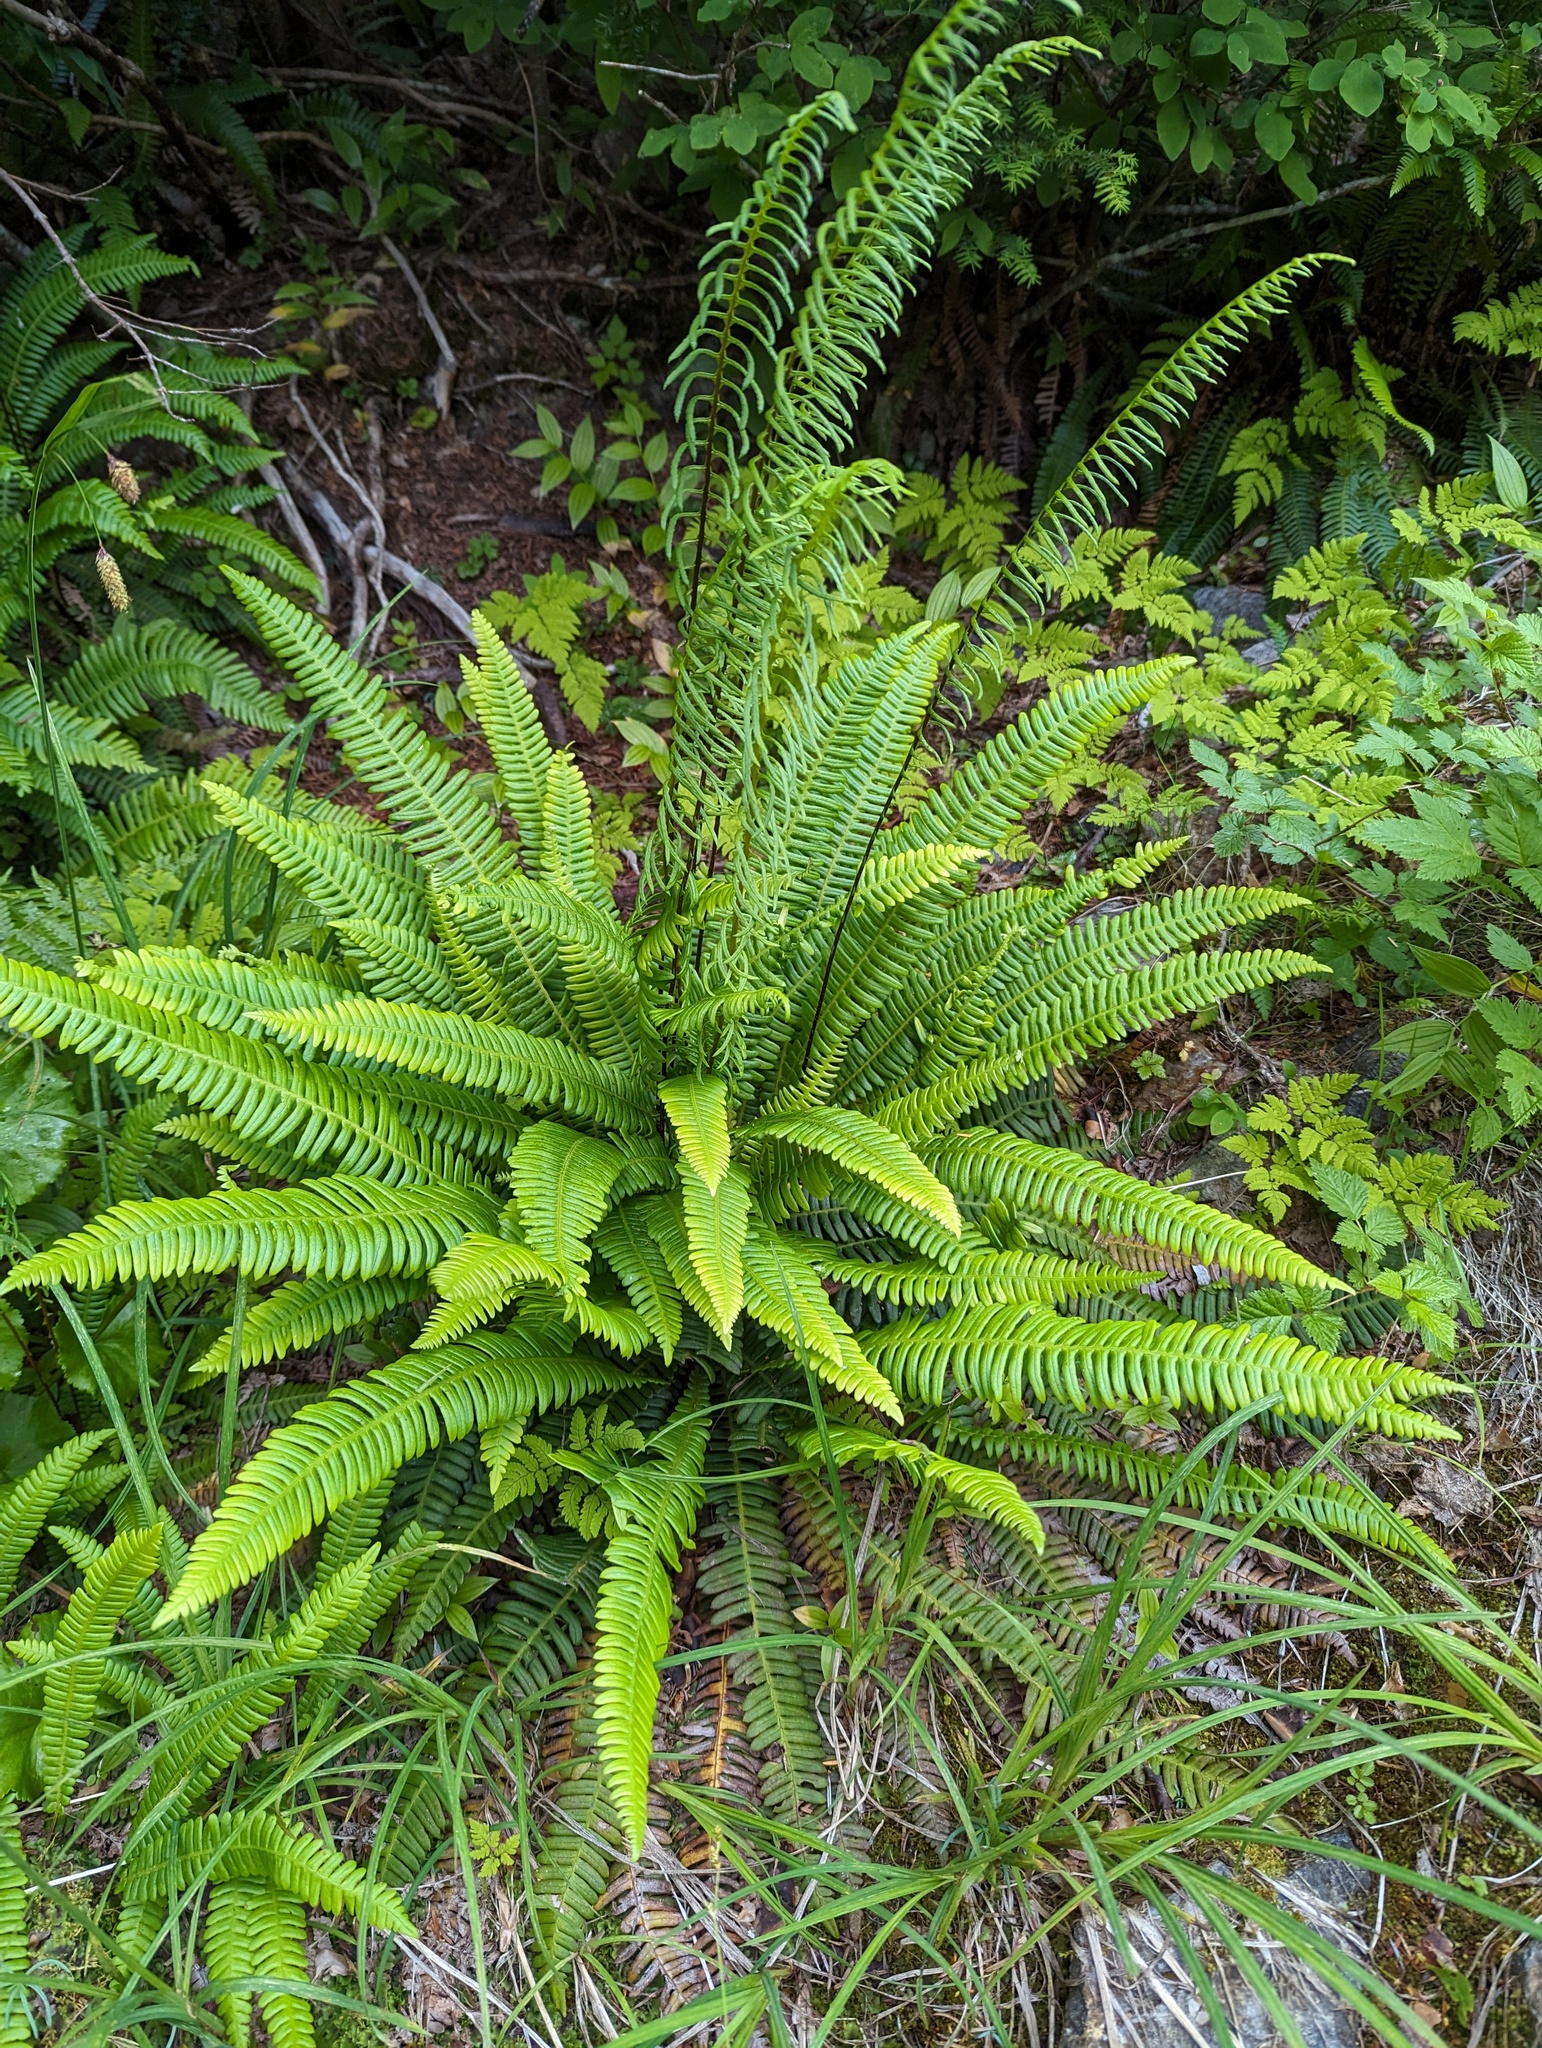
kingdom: Plantae
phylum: Tracheophyta
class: Polypodiopsida
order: Polypodiales
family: Blechnaceae
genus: Struthiopteris
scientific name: Struthiopteris spicant
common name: Deer fern
